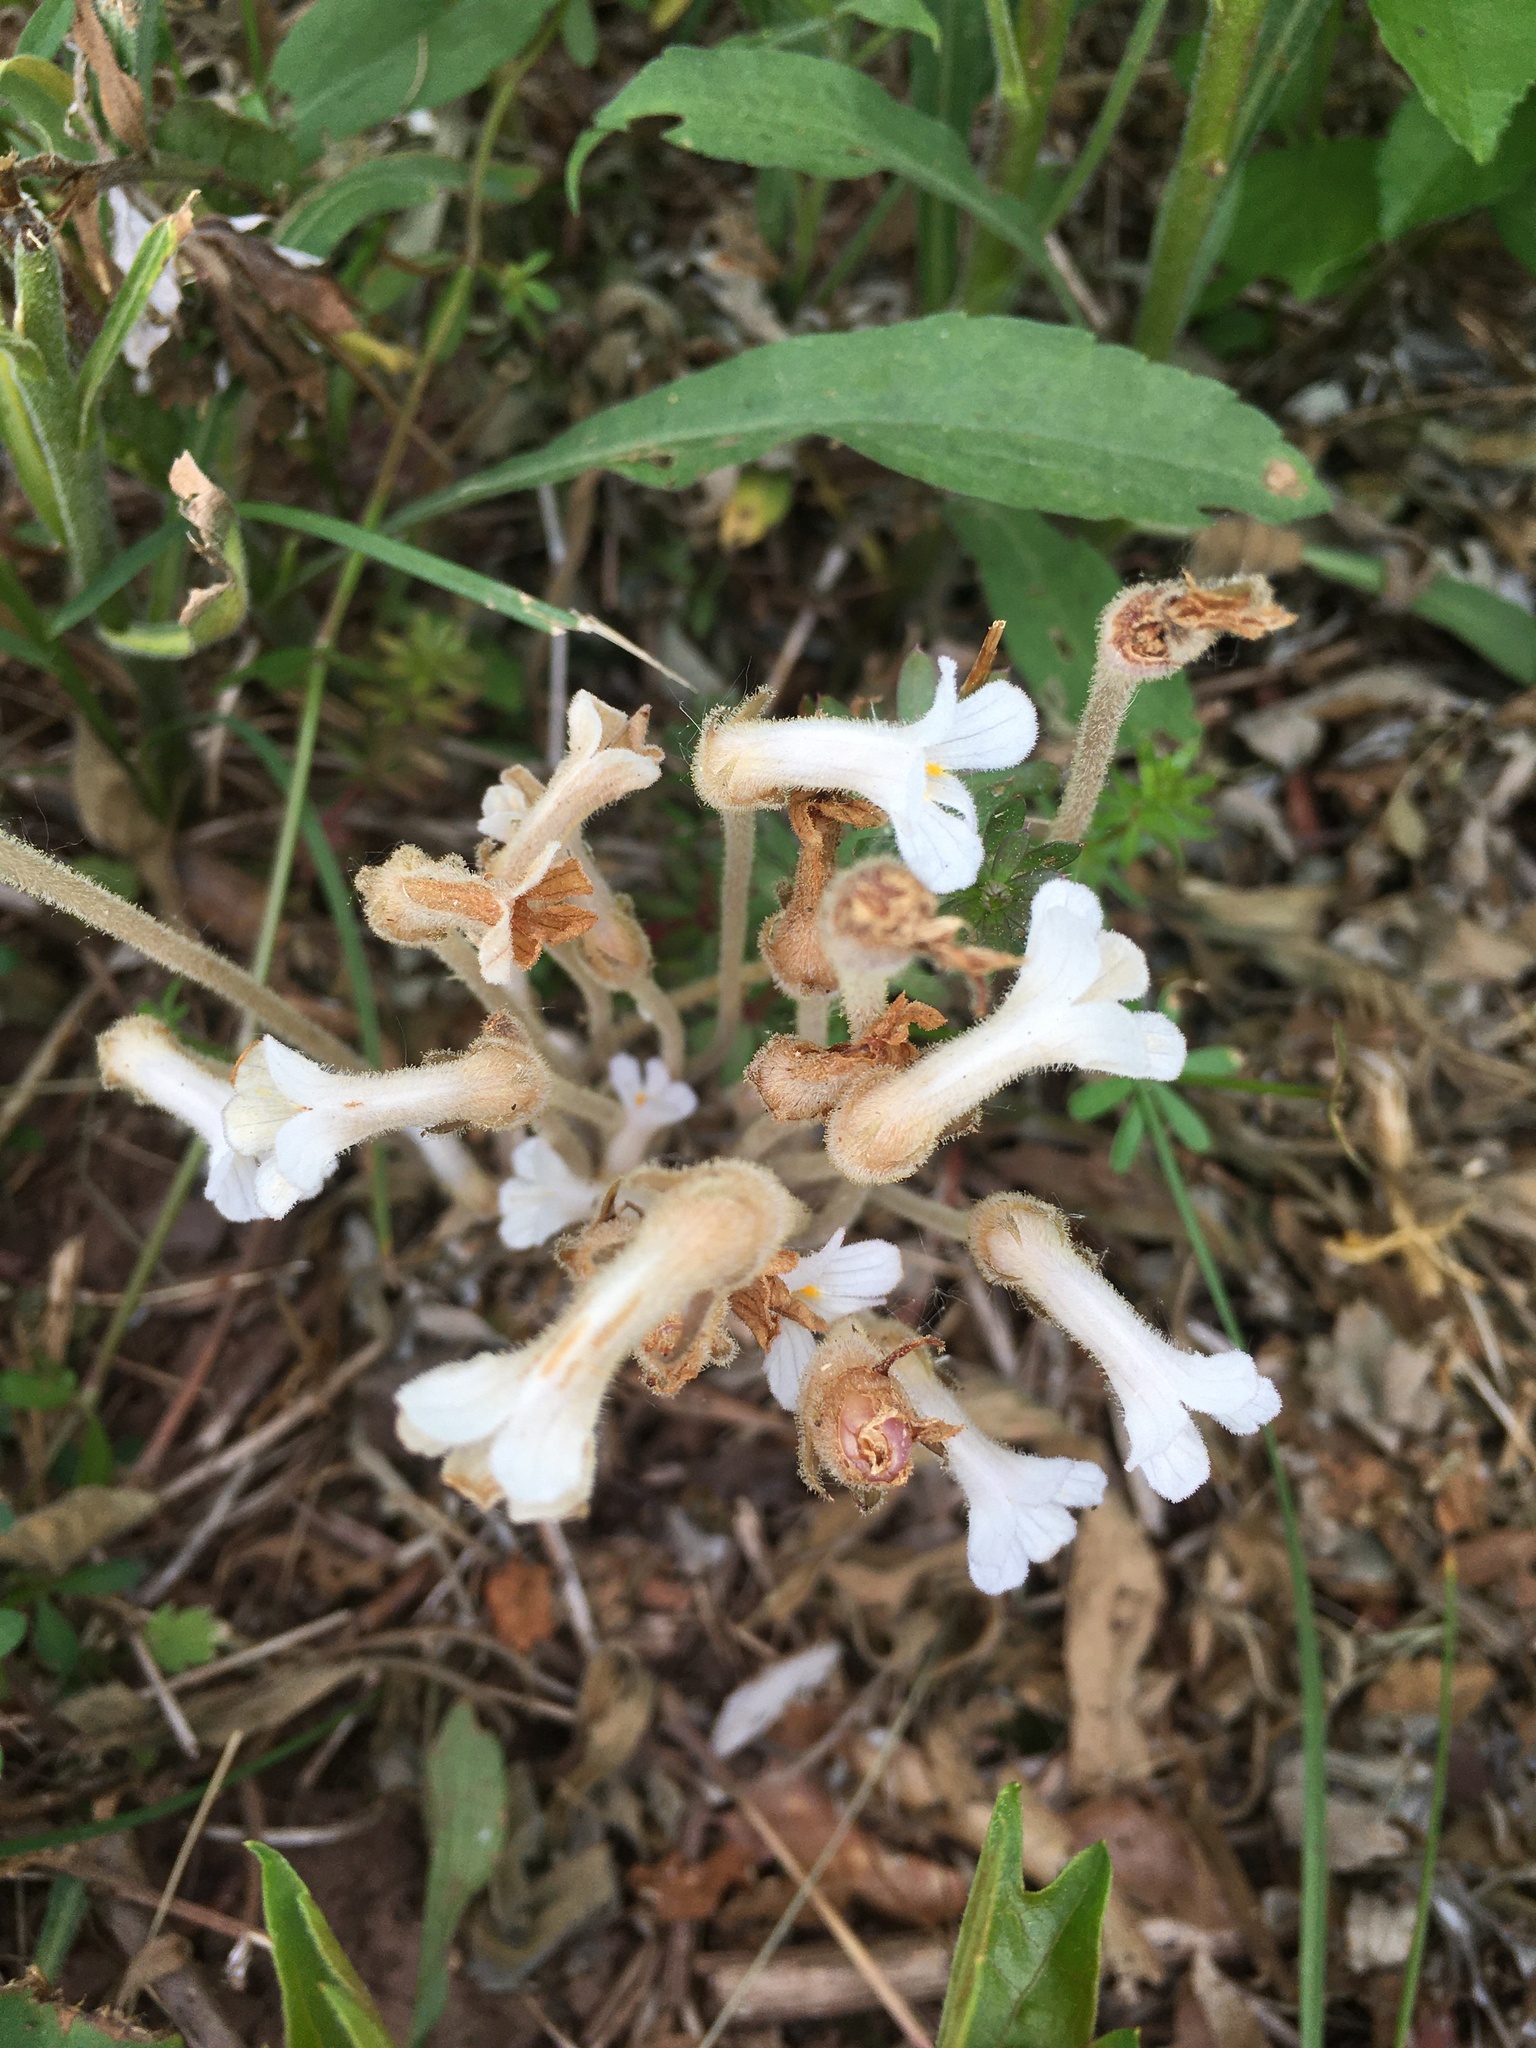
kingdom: Plantae
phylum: Tracheophyta
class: Magnoliopsida
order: Lamiales
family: Orobanchaceae
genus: Aphyllon
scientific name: Aphyllon uniflorum
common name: One-flowered broomrape
